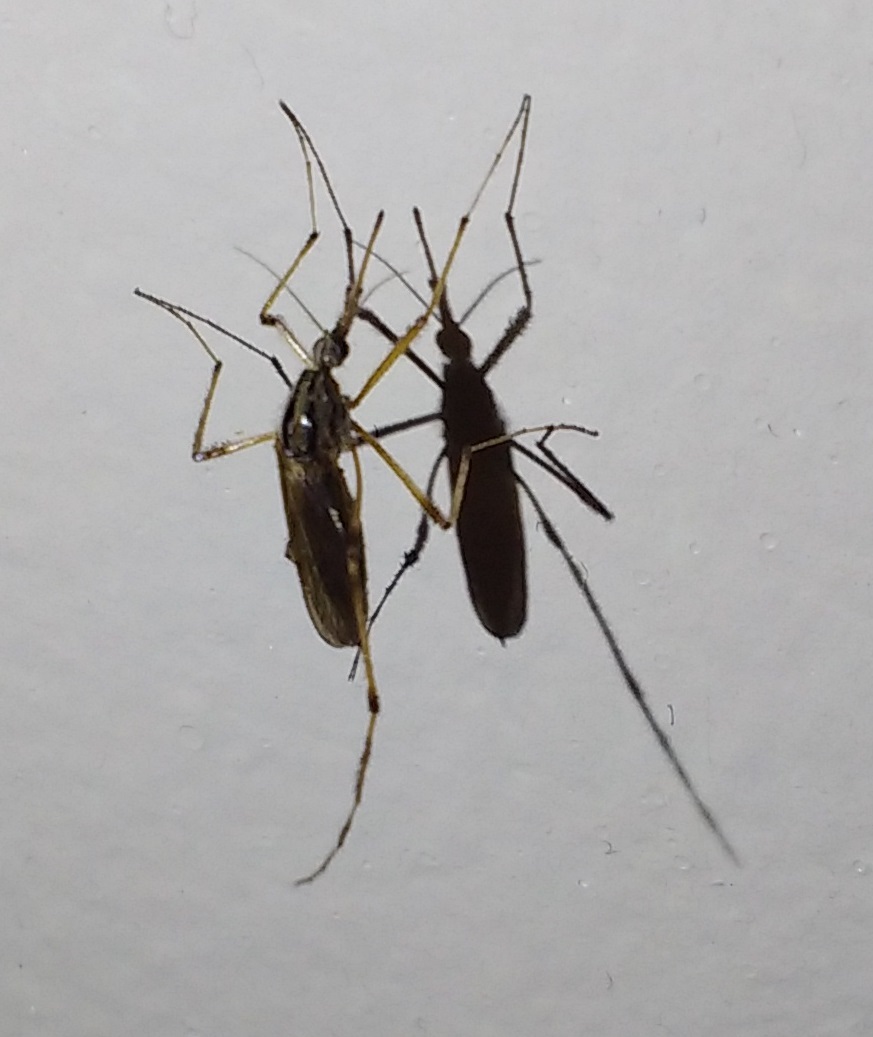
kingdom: Animalia
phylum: Arthropoda
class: Insecta
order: Diptera
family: Culicidae
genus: Psorophora
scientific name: Psorophora ciliata
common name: Gallinipper
